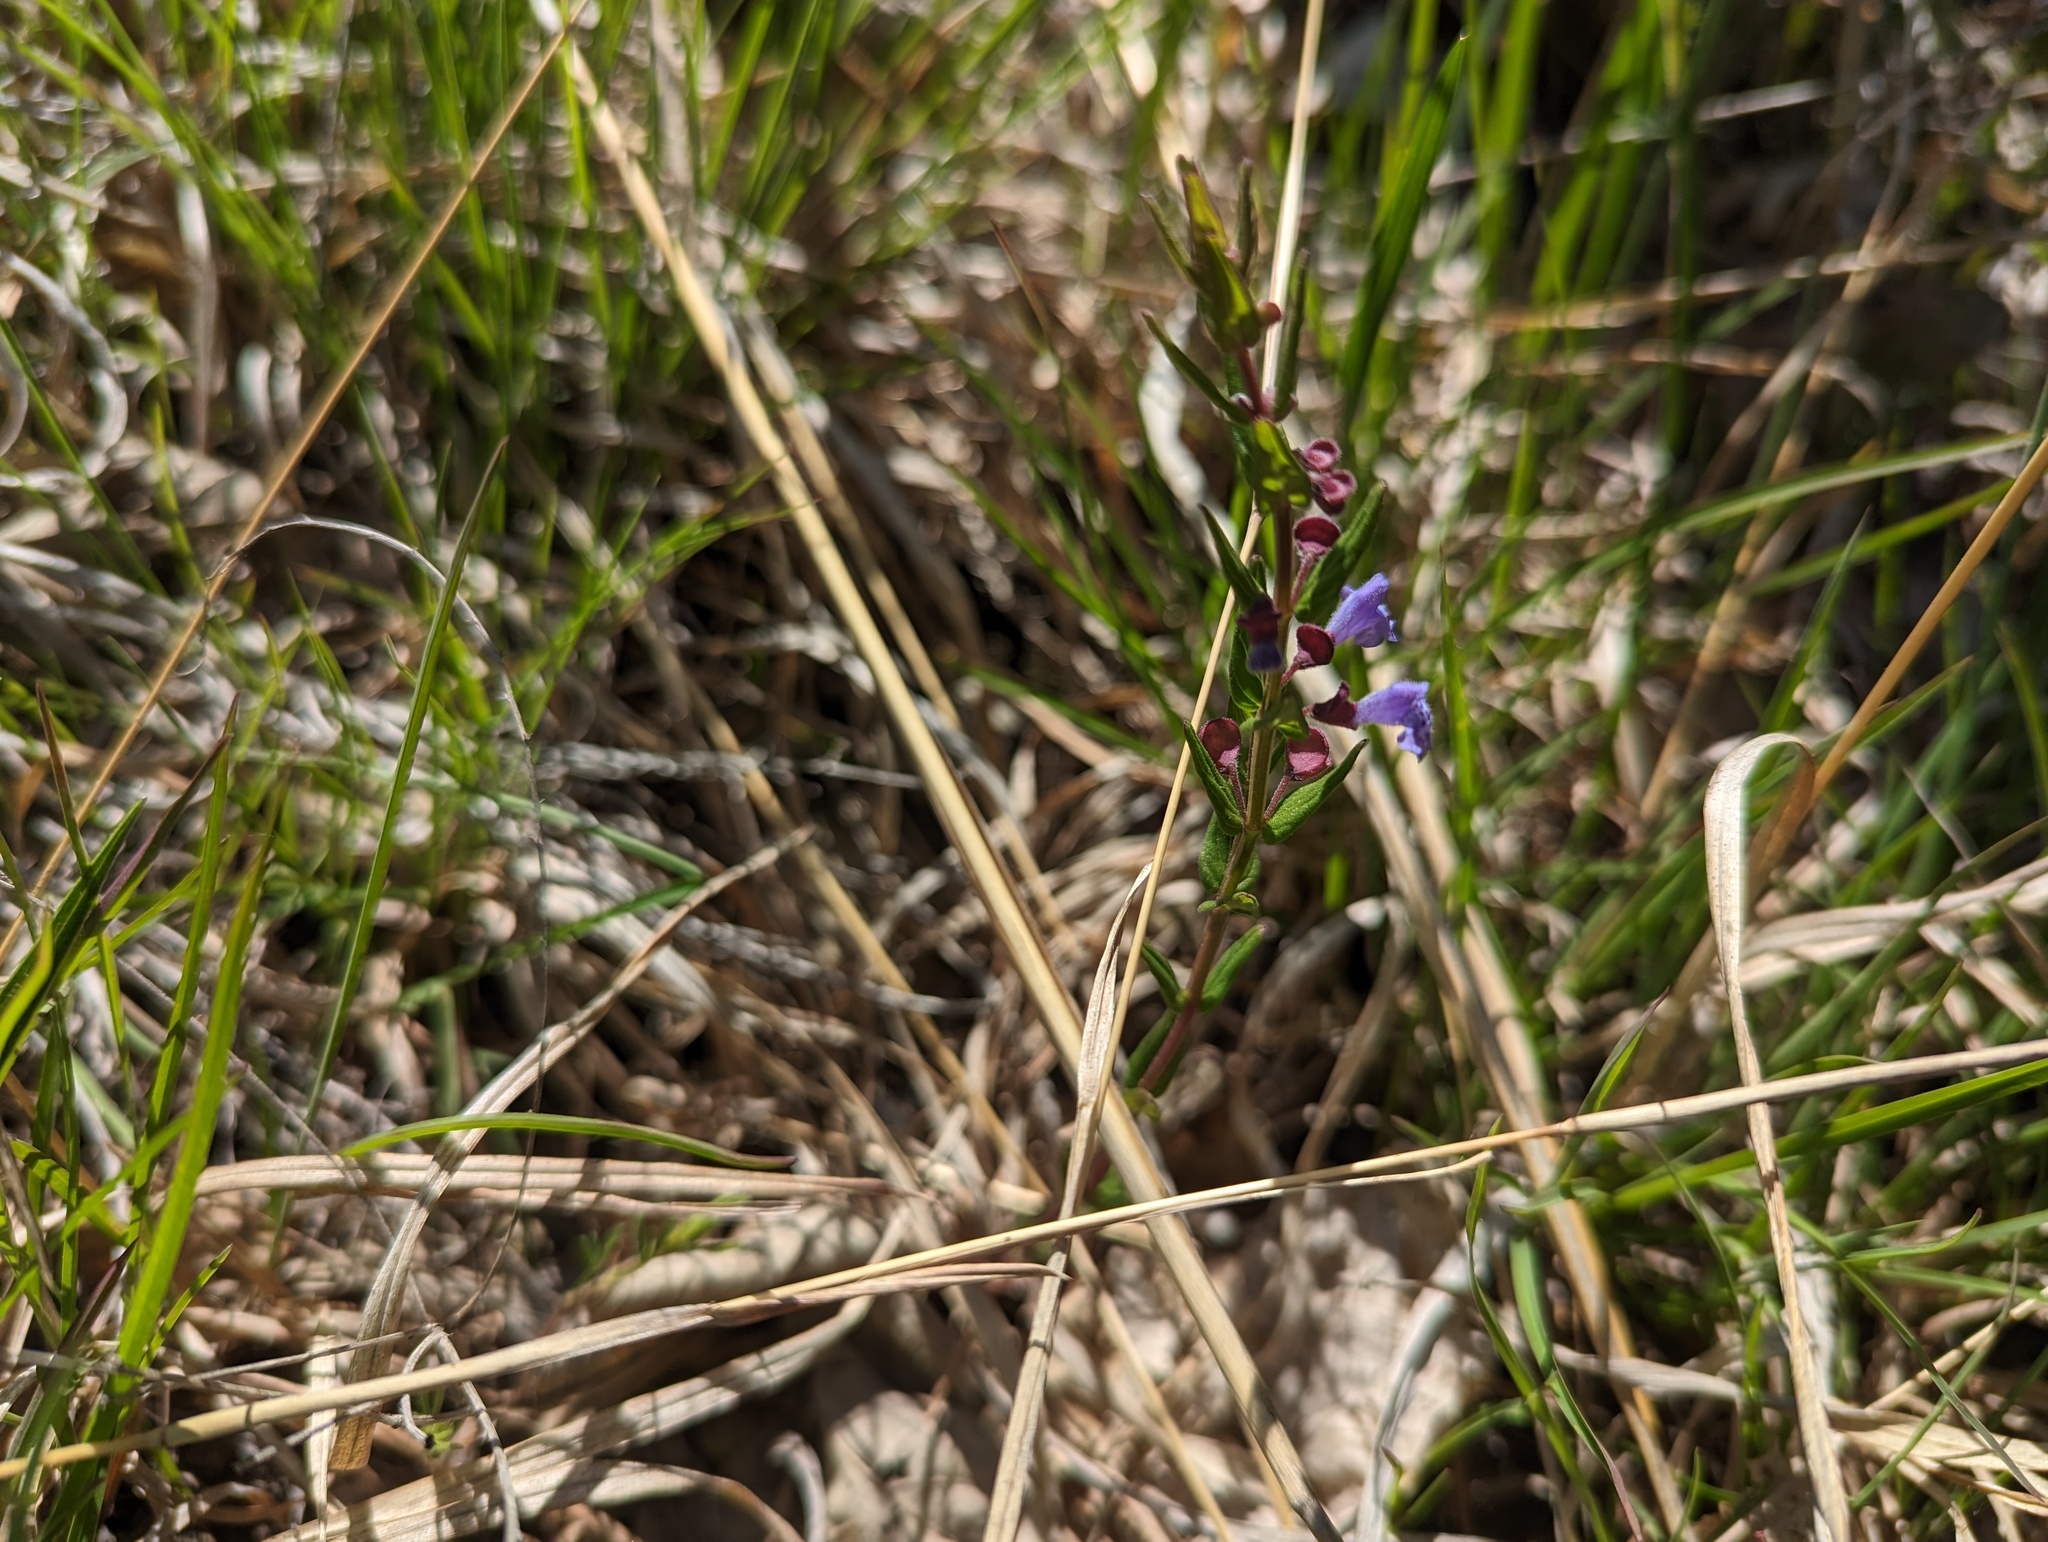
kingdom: Plantae
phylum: Tracheophyta
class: Magnoliopsida
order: Lamiales
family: Lamiaceae
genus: Scutellaria
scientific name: Scutellaria parvula
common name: Little scullcap
